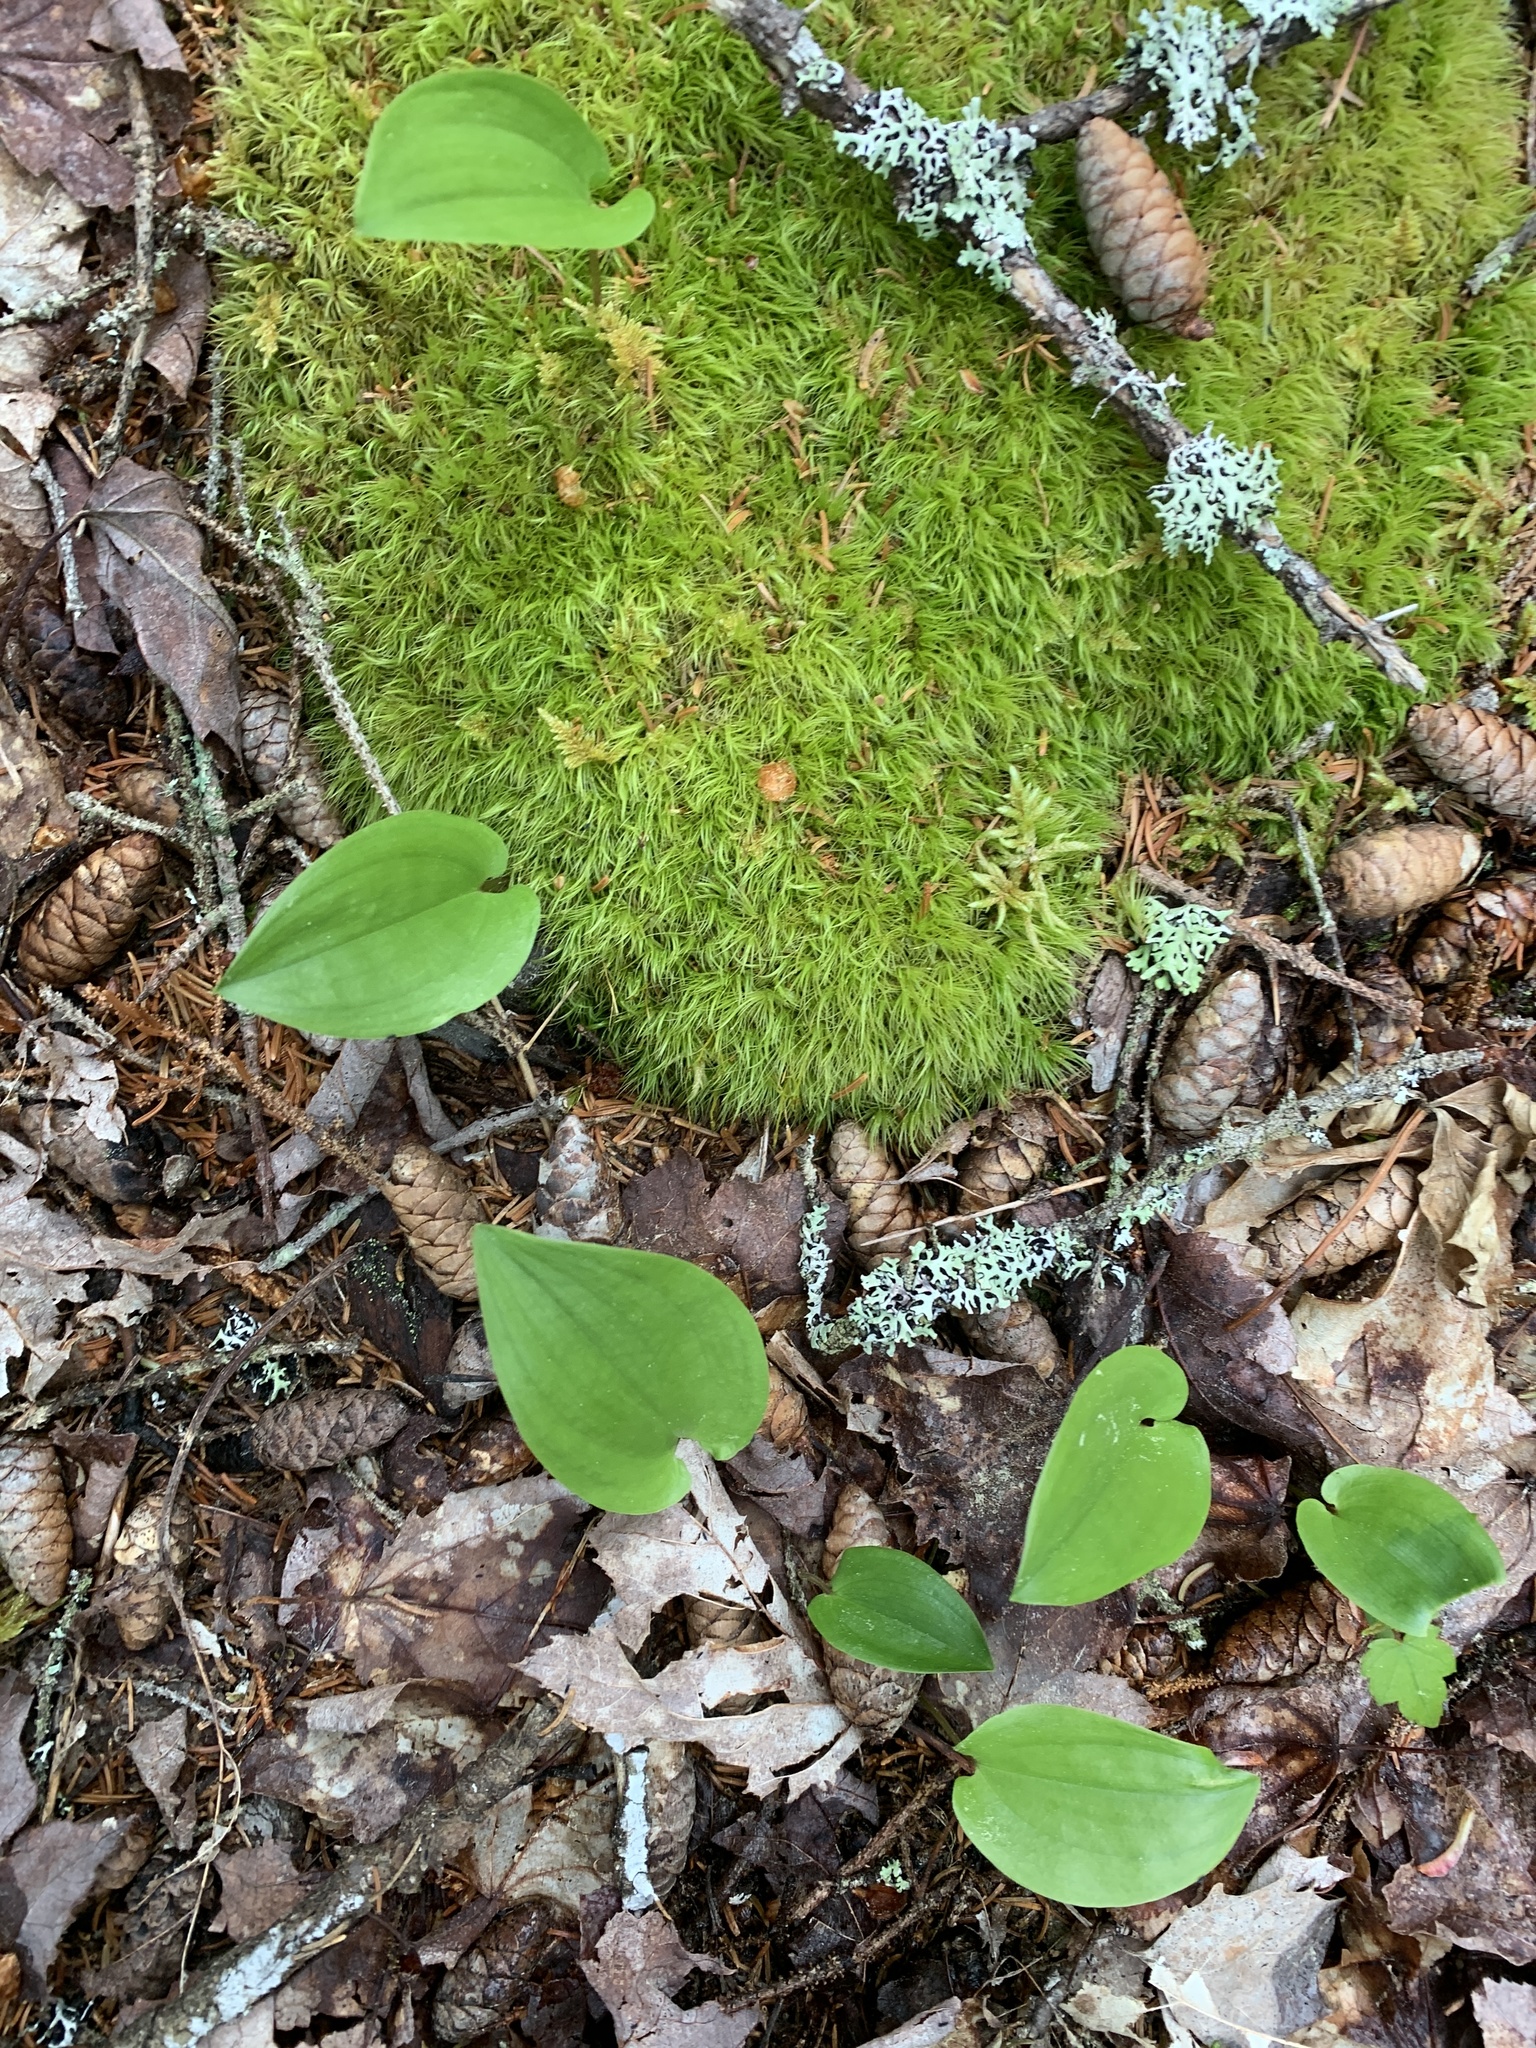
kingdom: Plantae
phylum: Tracheophyta
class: Liliopsida
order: Asparagales
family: Asparagaceae
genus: Maianthemum
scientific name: Maianthemum canadense
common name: False lily-of-the-valley
